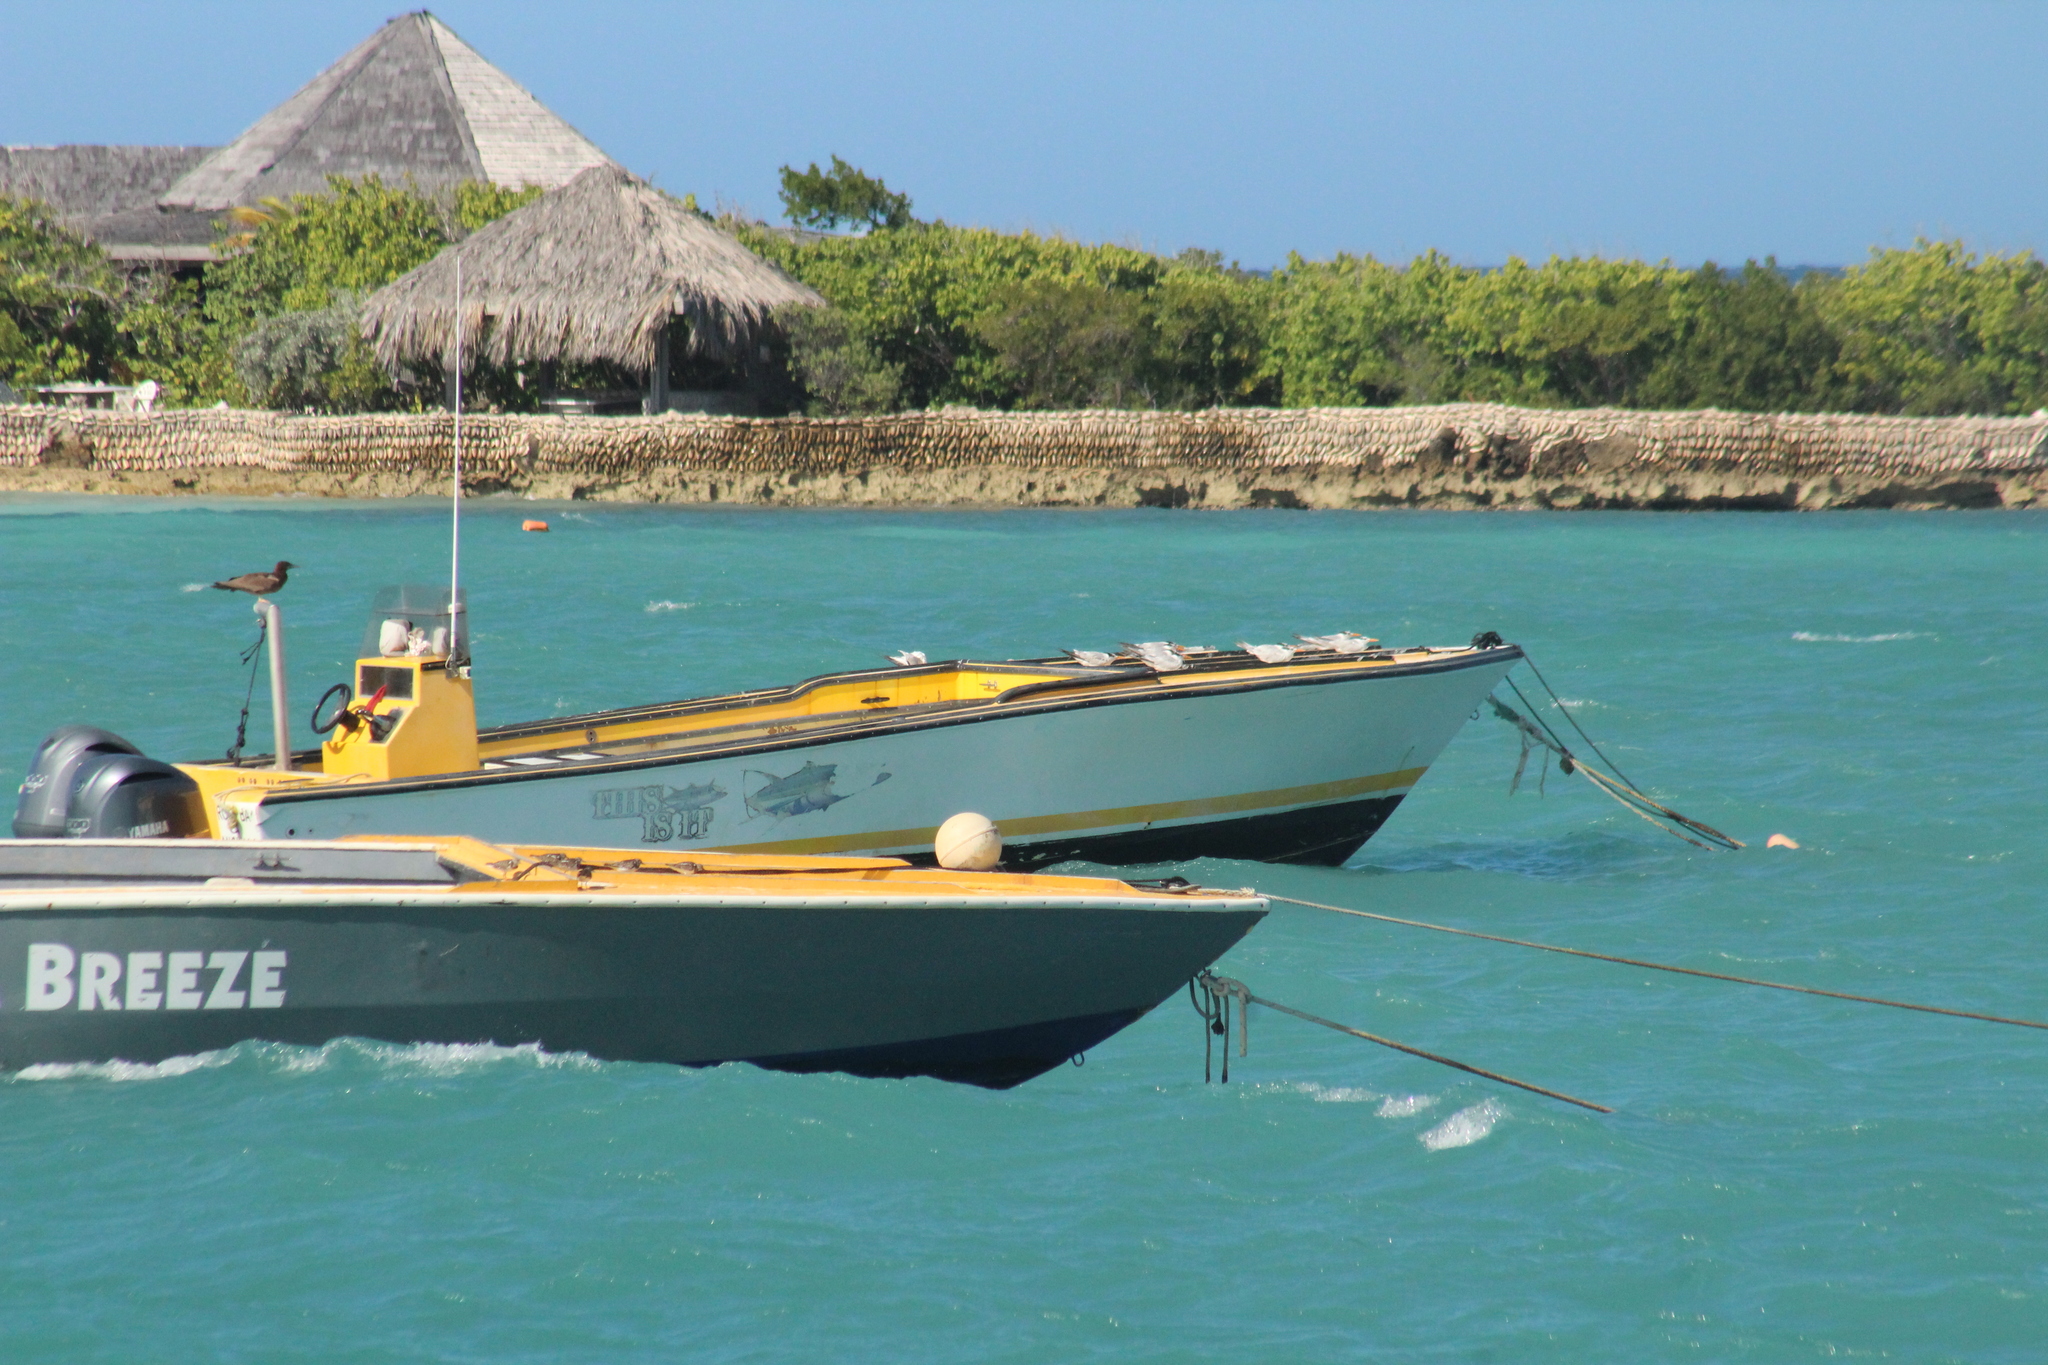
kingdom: Animalia
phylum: Chordata
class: Aves
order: Charadriiformes
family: Laridae
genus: Thalasseus
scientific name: Thalasseus maximus
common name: Royal tern
